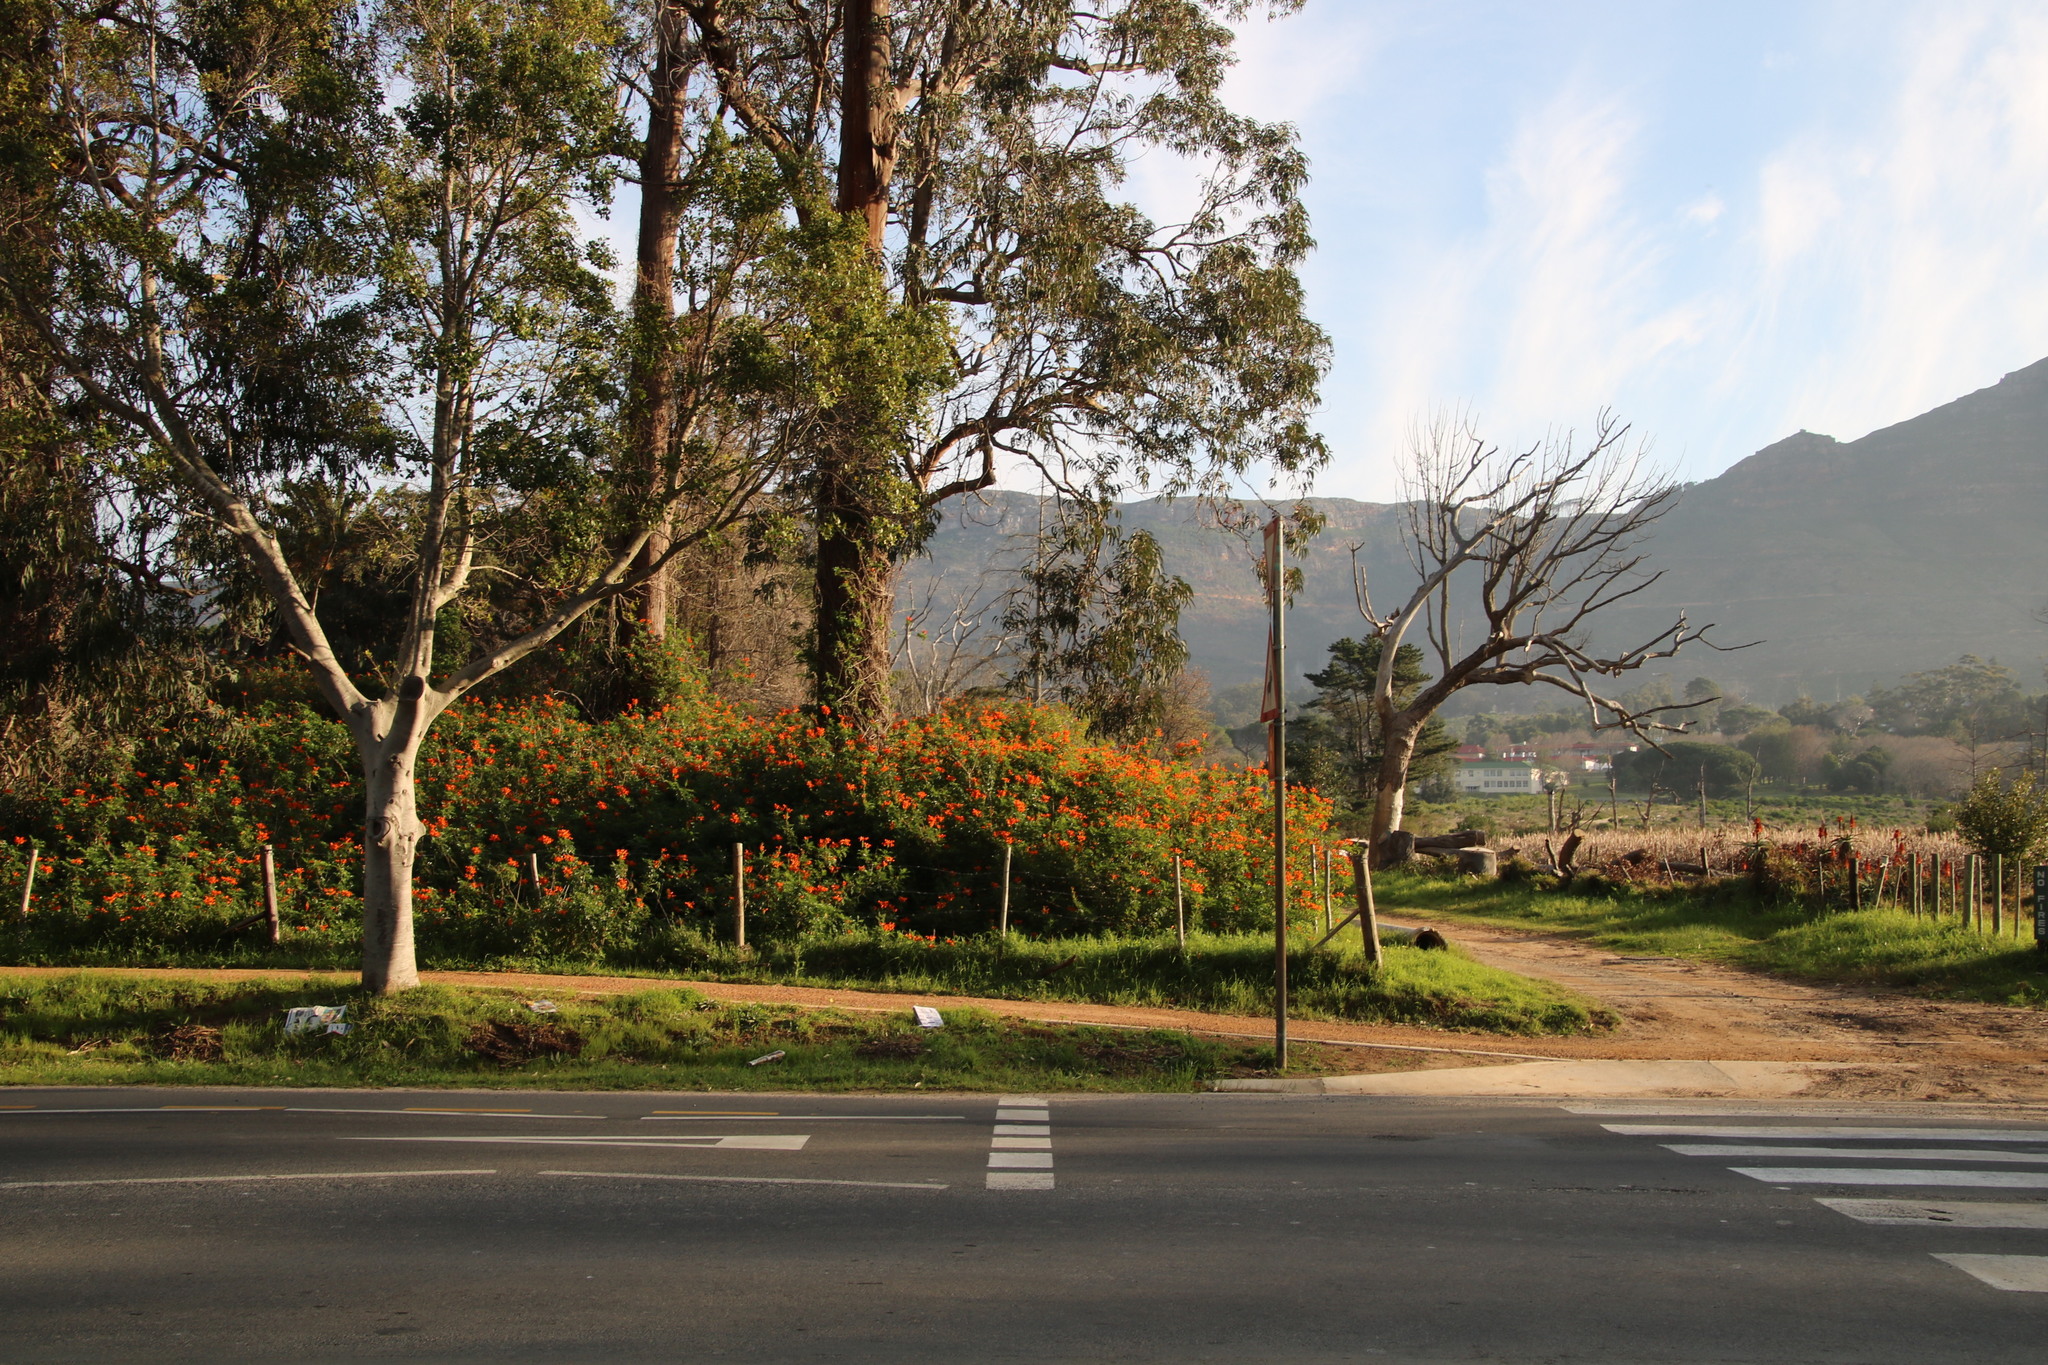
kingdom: Plantae
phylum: Tracheophyta
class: Magnoliopsida
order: Lamiales
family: Bignoniaceae
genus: Tecomaria
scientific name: Tecomaria capensis
